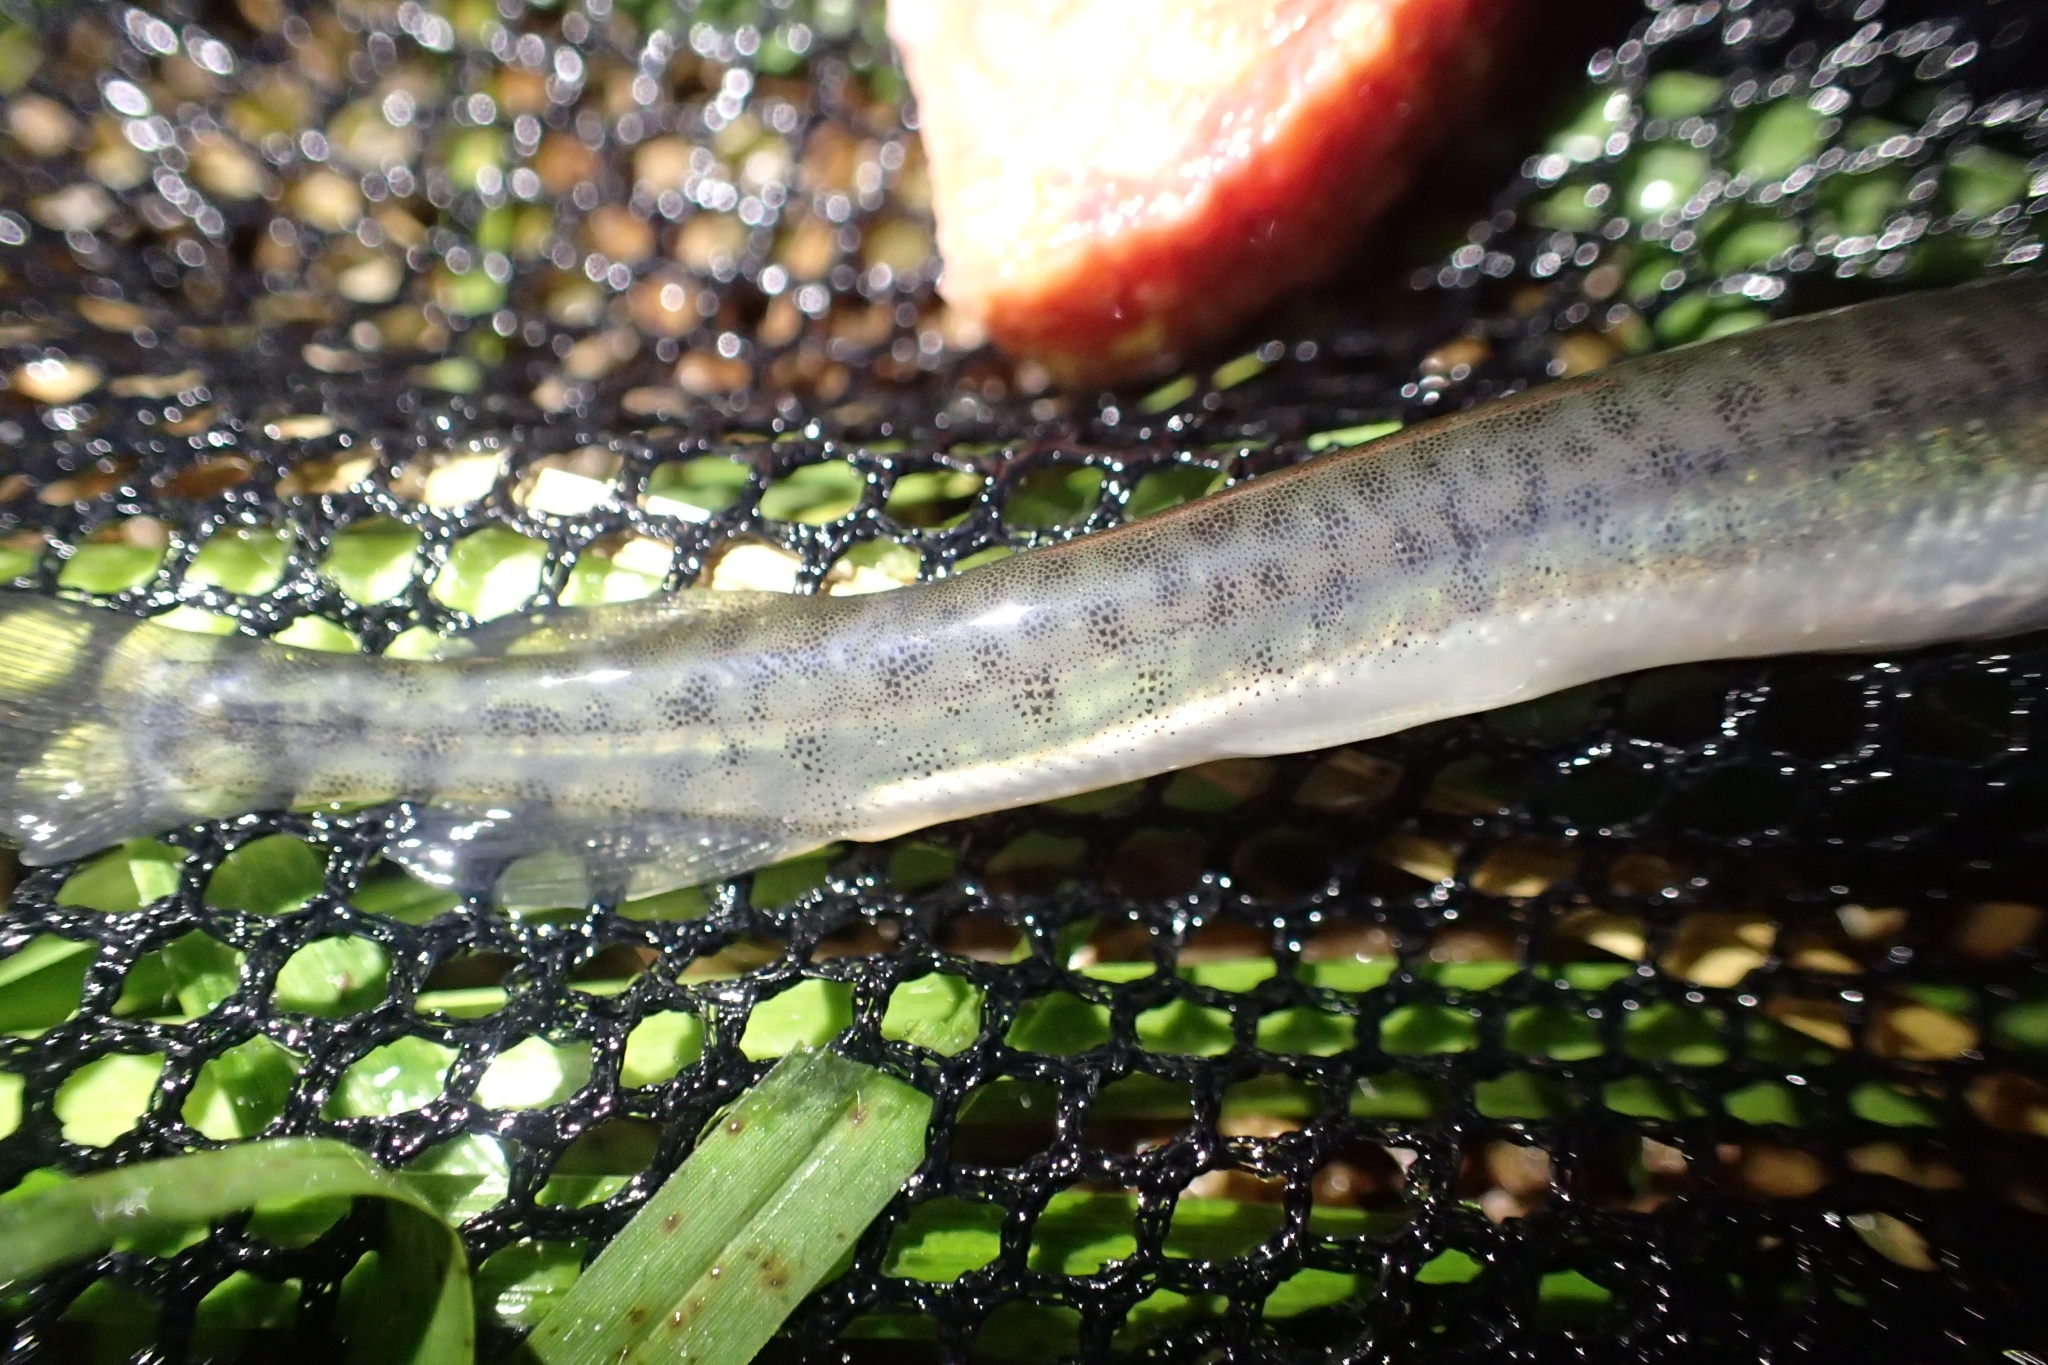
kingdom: Animalia
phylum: Chordata
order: Osmeriformes
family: Galaxiidae
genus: Galaxias
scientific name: Galaxias maculatus
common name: Common galaxias
